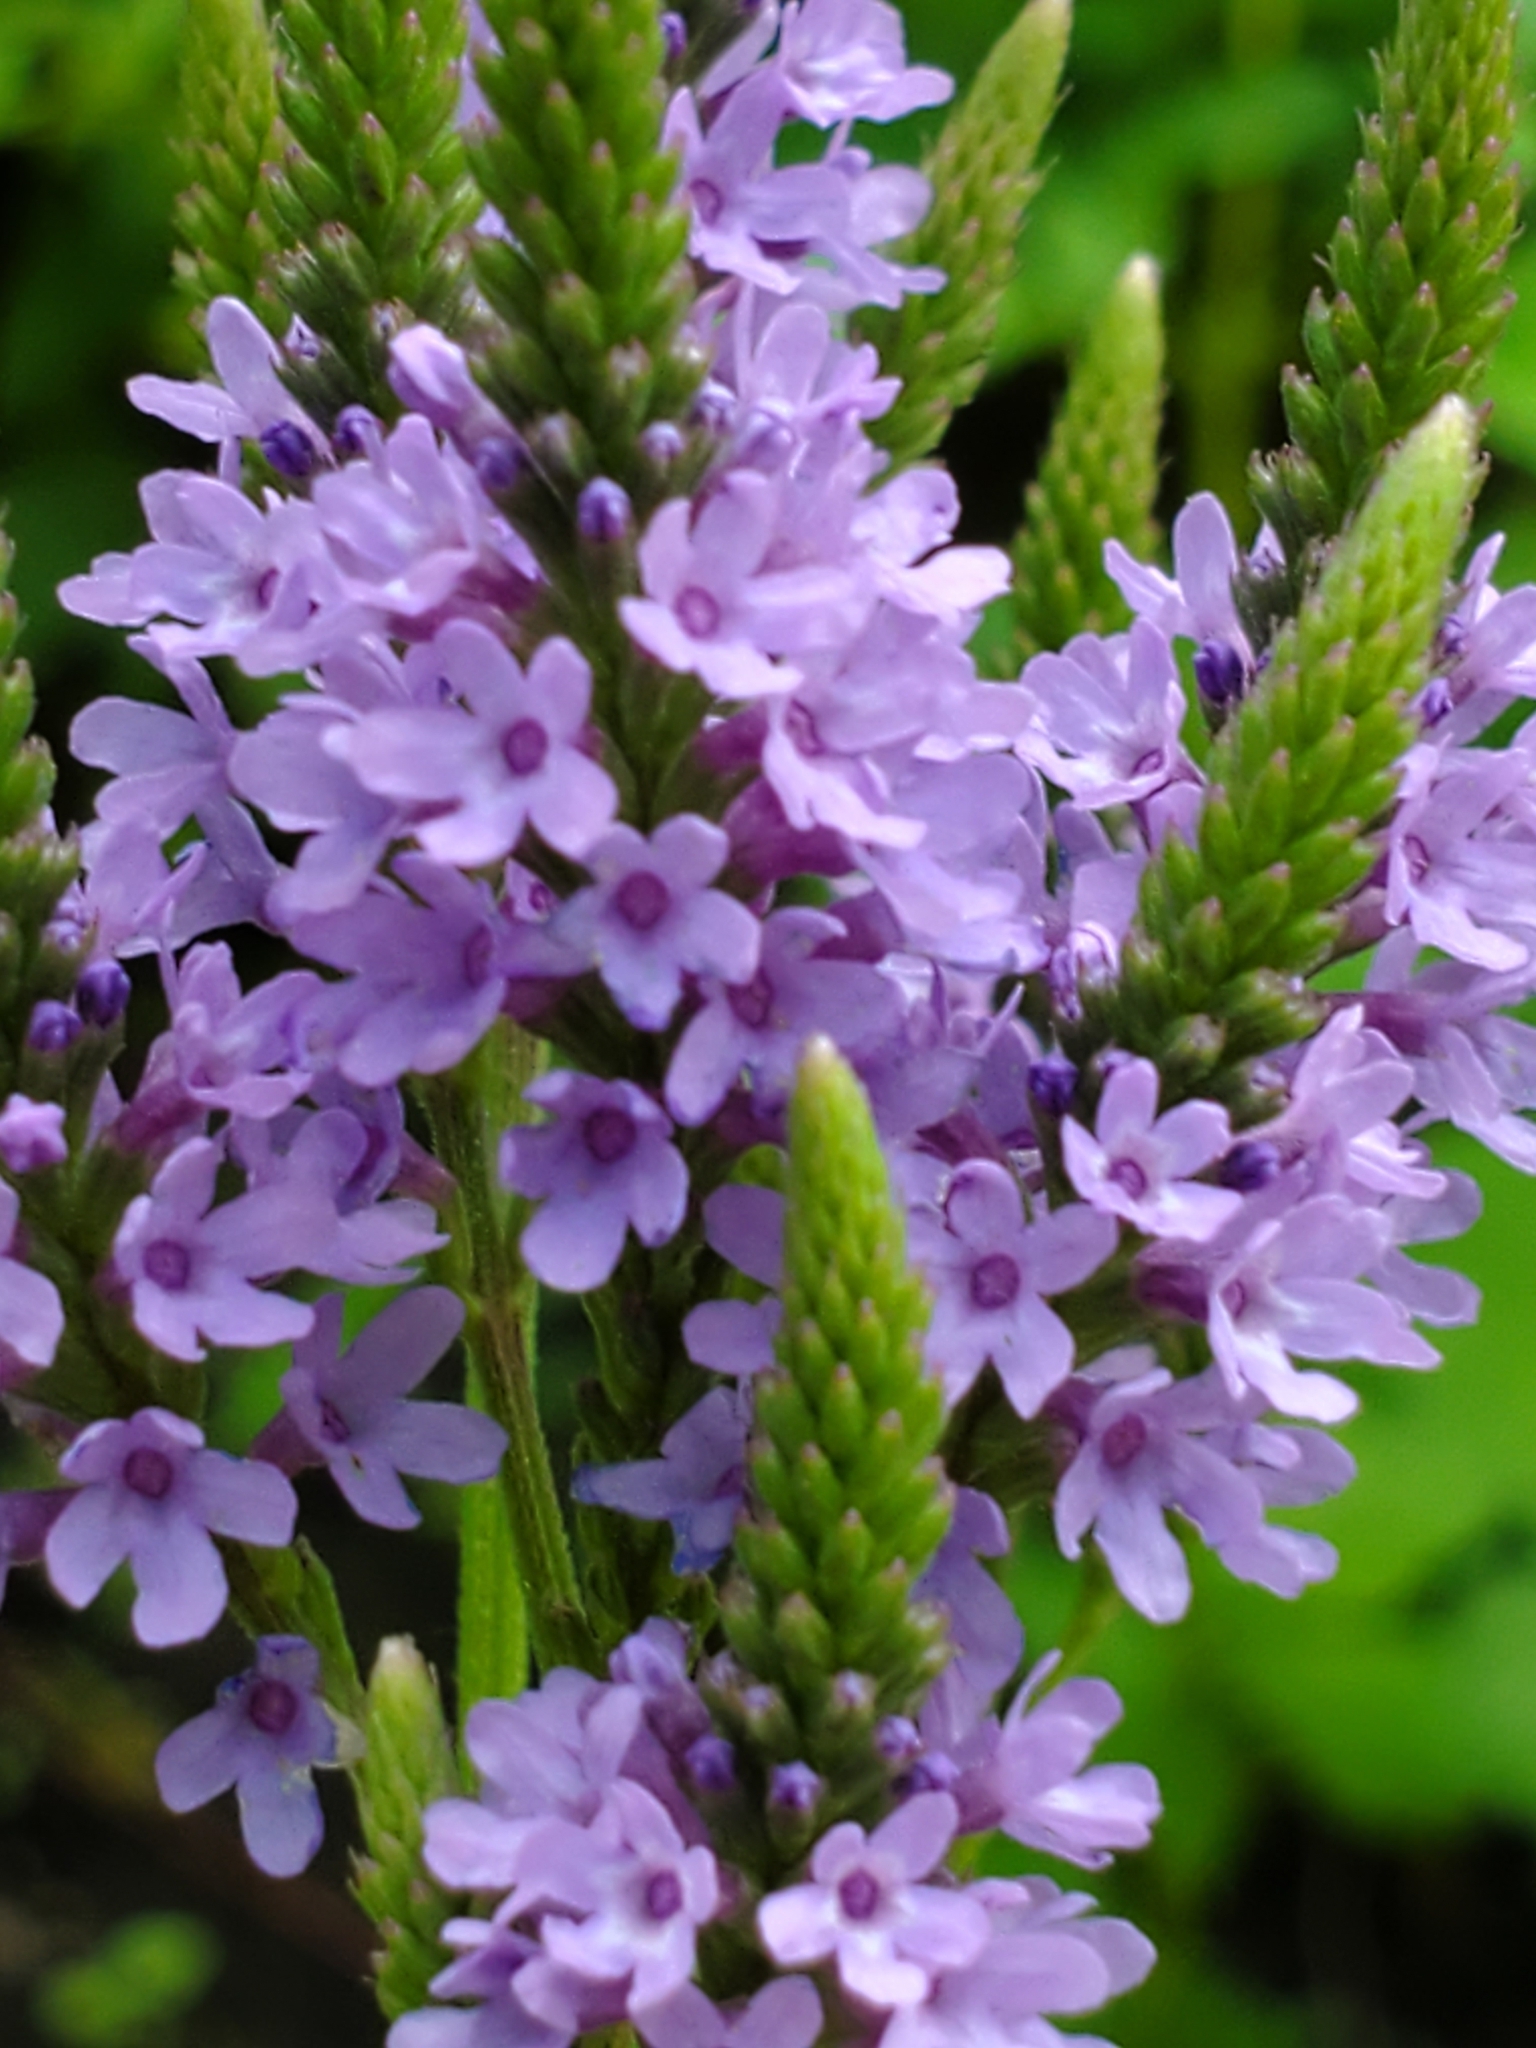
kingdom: Plantae
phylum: Tracheophyta
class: Magnoliopsida
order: Lamiales
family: Verbenaceae
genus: Verbena
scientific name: Verbena hastata
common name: American blue vervain
